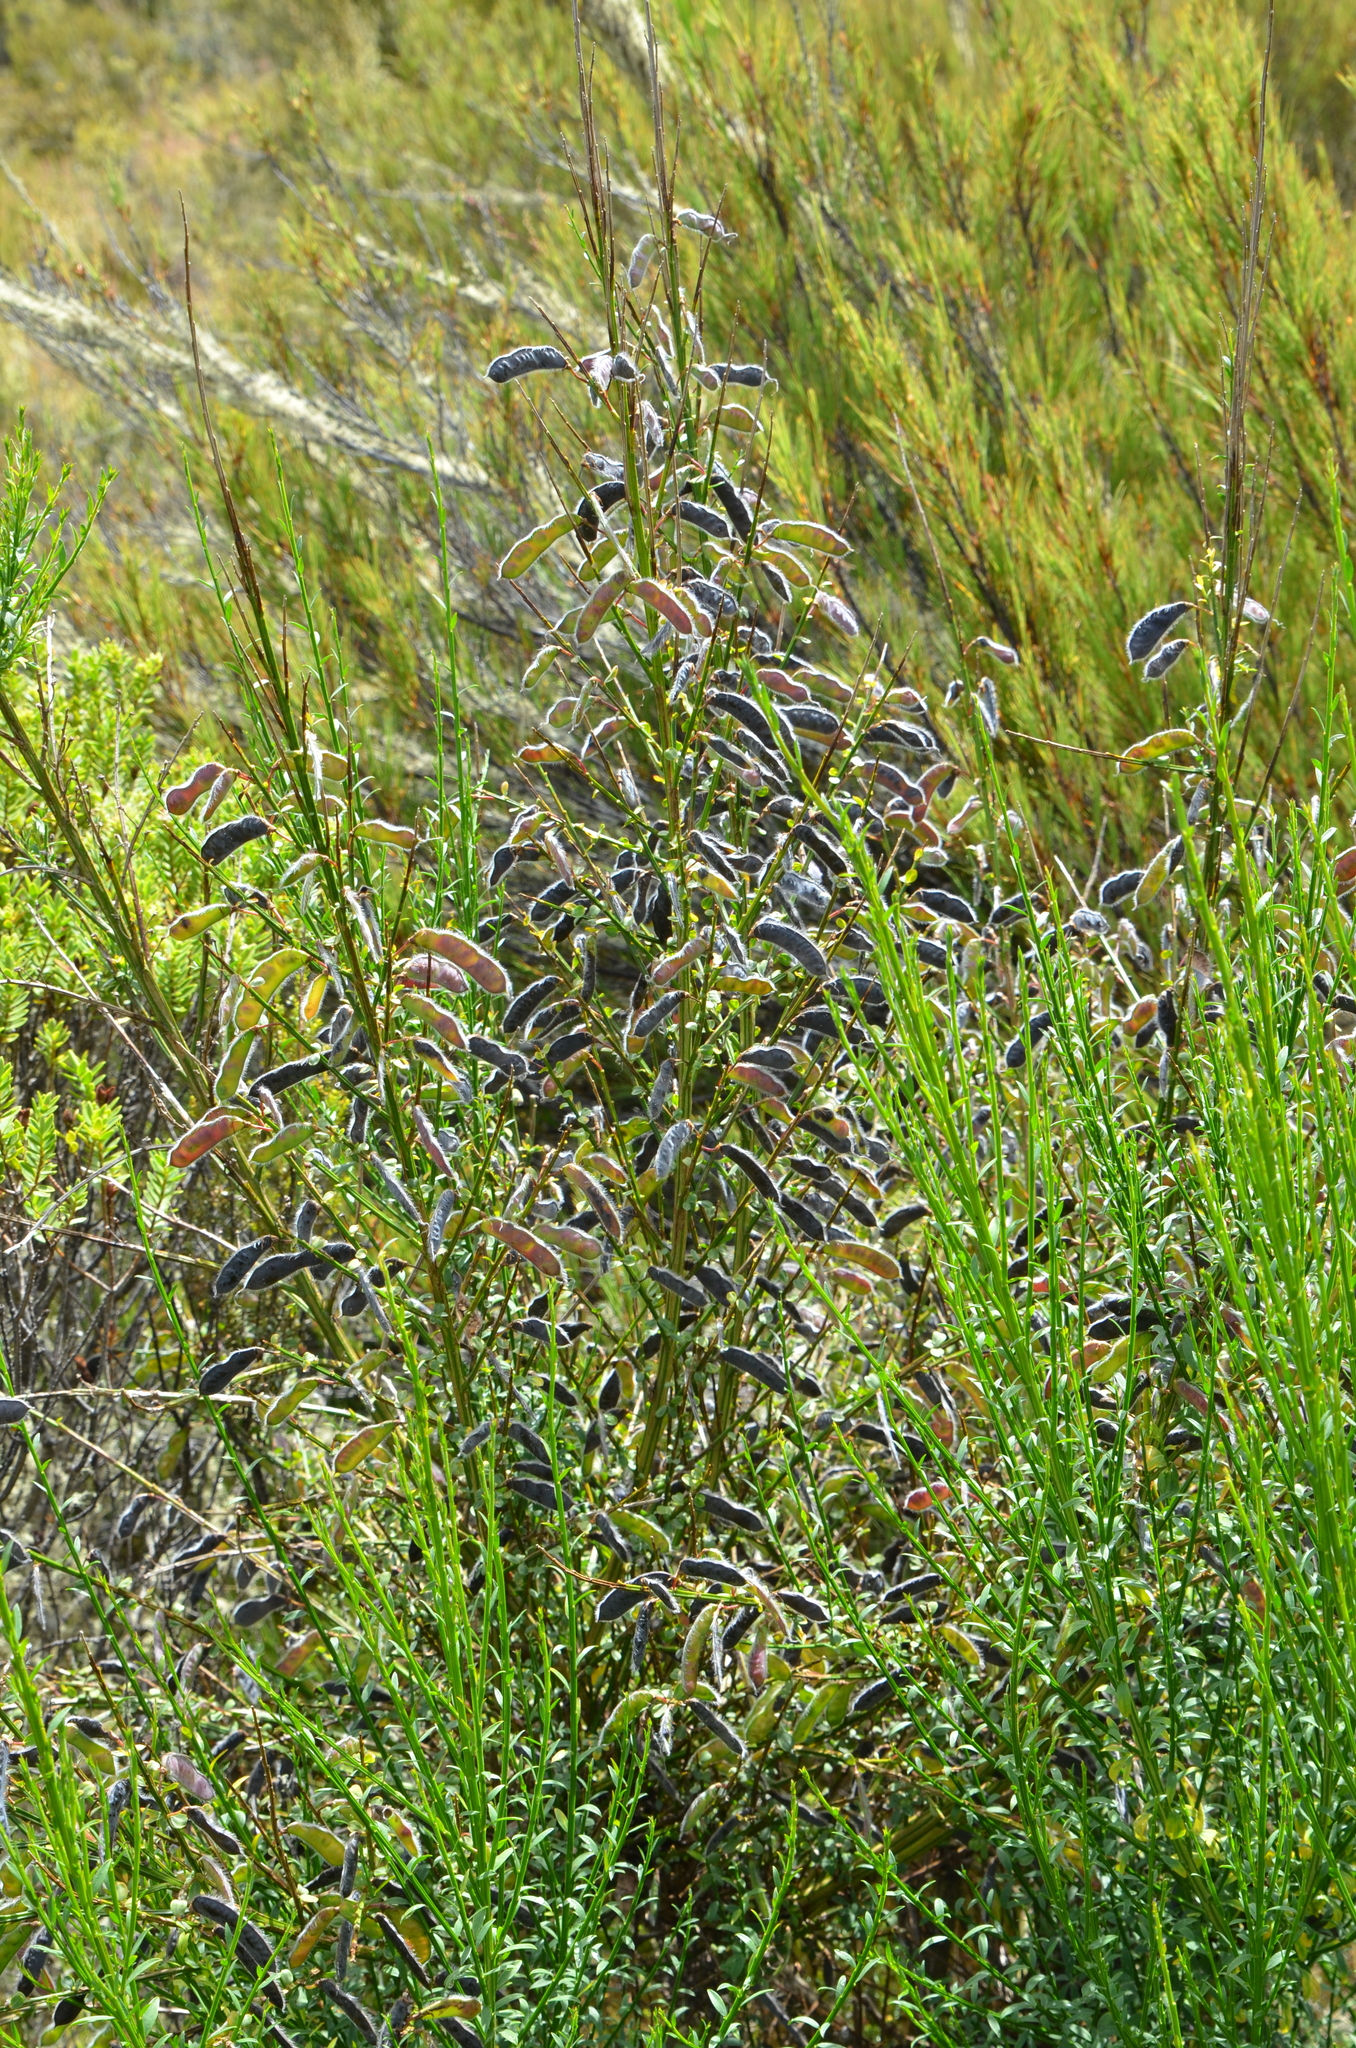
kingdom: Plantae
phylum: Tracheophyta
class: Magnoliopsida
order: Fabales
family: Fabaceae
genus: Cytisus
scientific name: Cytisus scoparius
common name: Scotch broom
